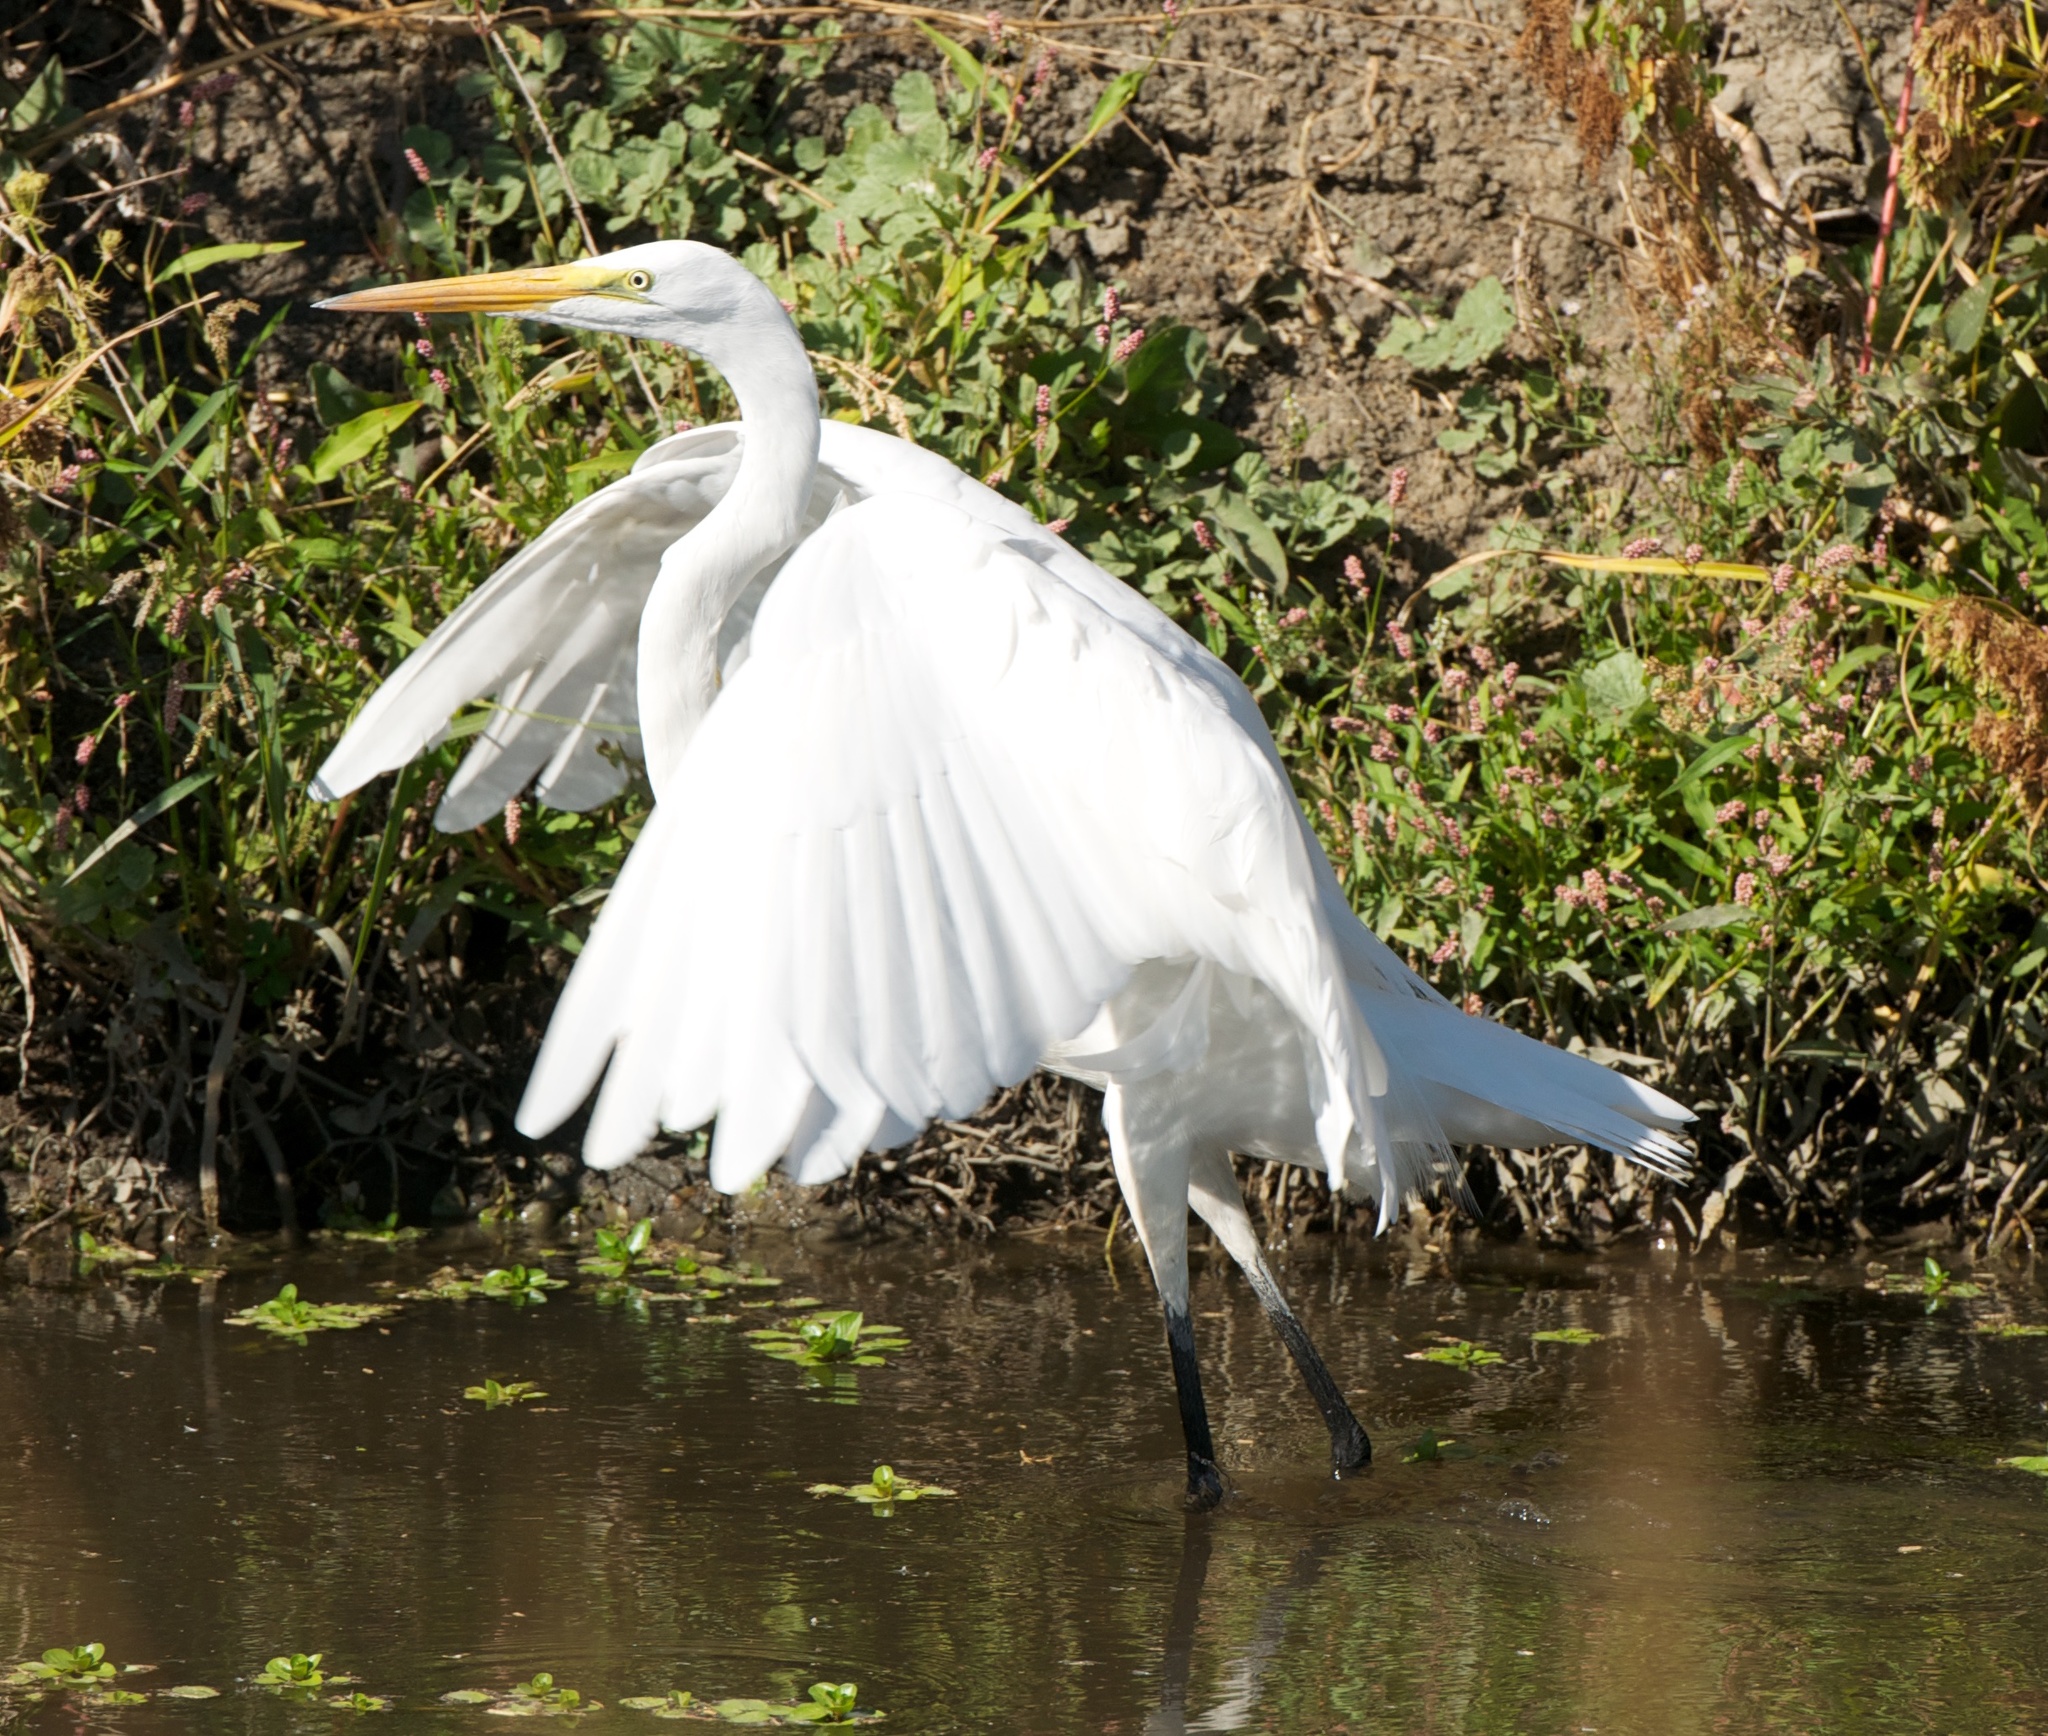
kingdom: Animalia
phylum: Chordata
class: Aves
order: Pelecaniformes
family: Ardeidae
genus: Ardea
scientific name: Ardea alba
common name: Great egret
